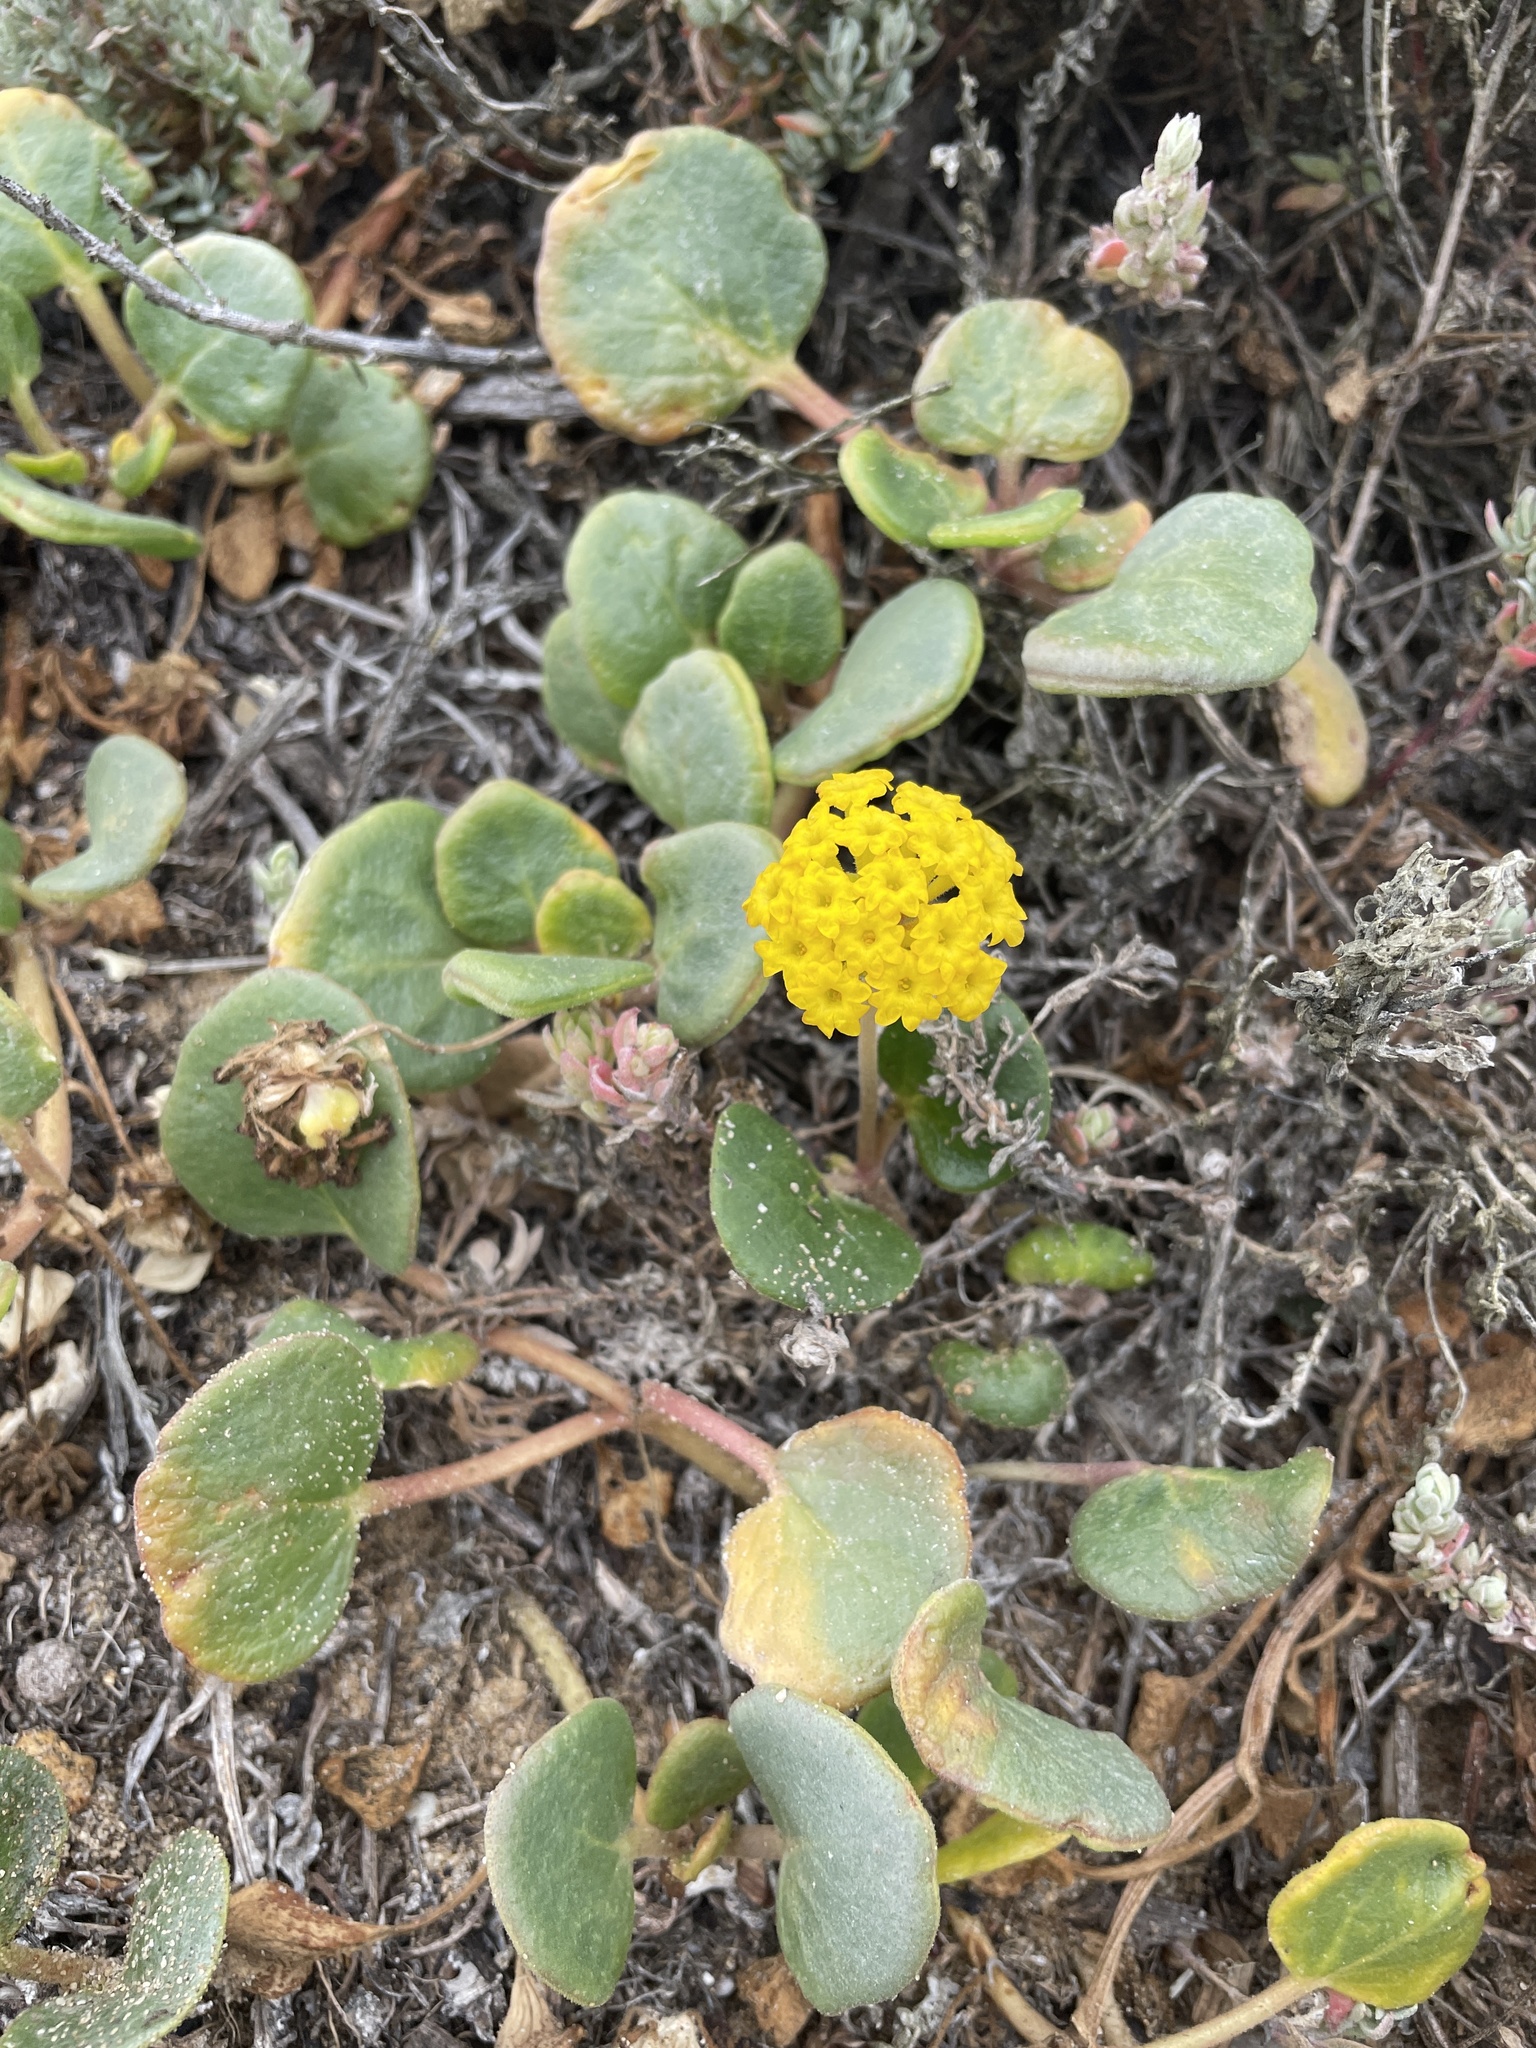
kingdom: Plantae
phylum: Tracheophyta
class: Magnoliopsida
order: Caryophyllales
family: Nyctaginaceae
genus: Abronia
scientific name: Abronia latifolia
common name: Yellow sand-verbena
